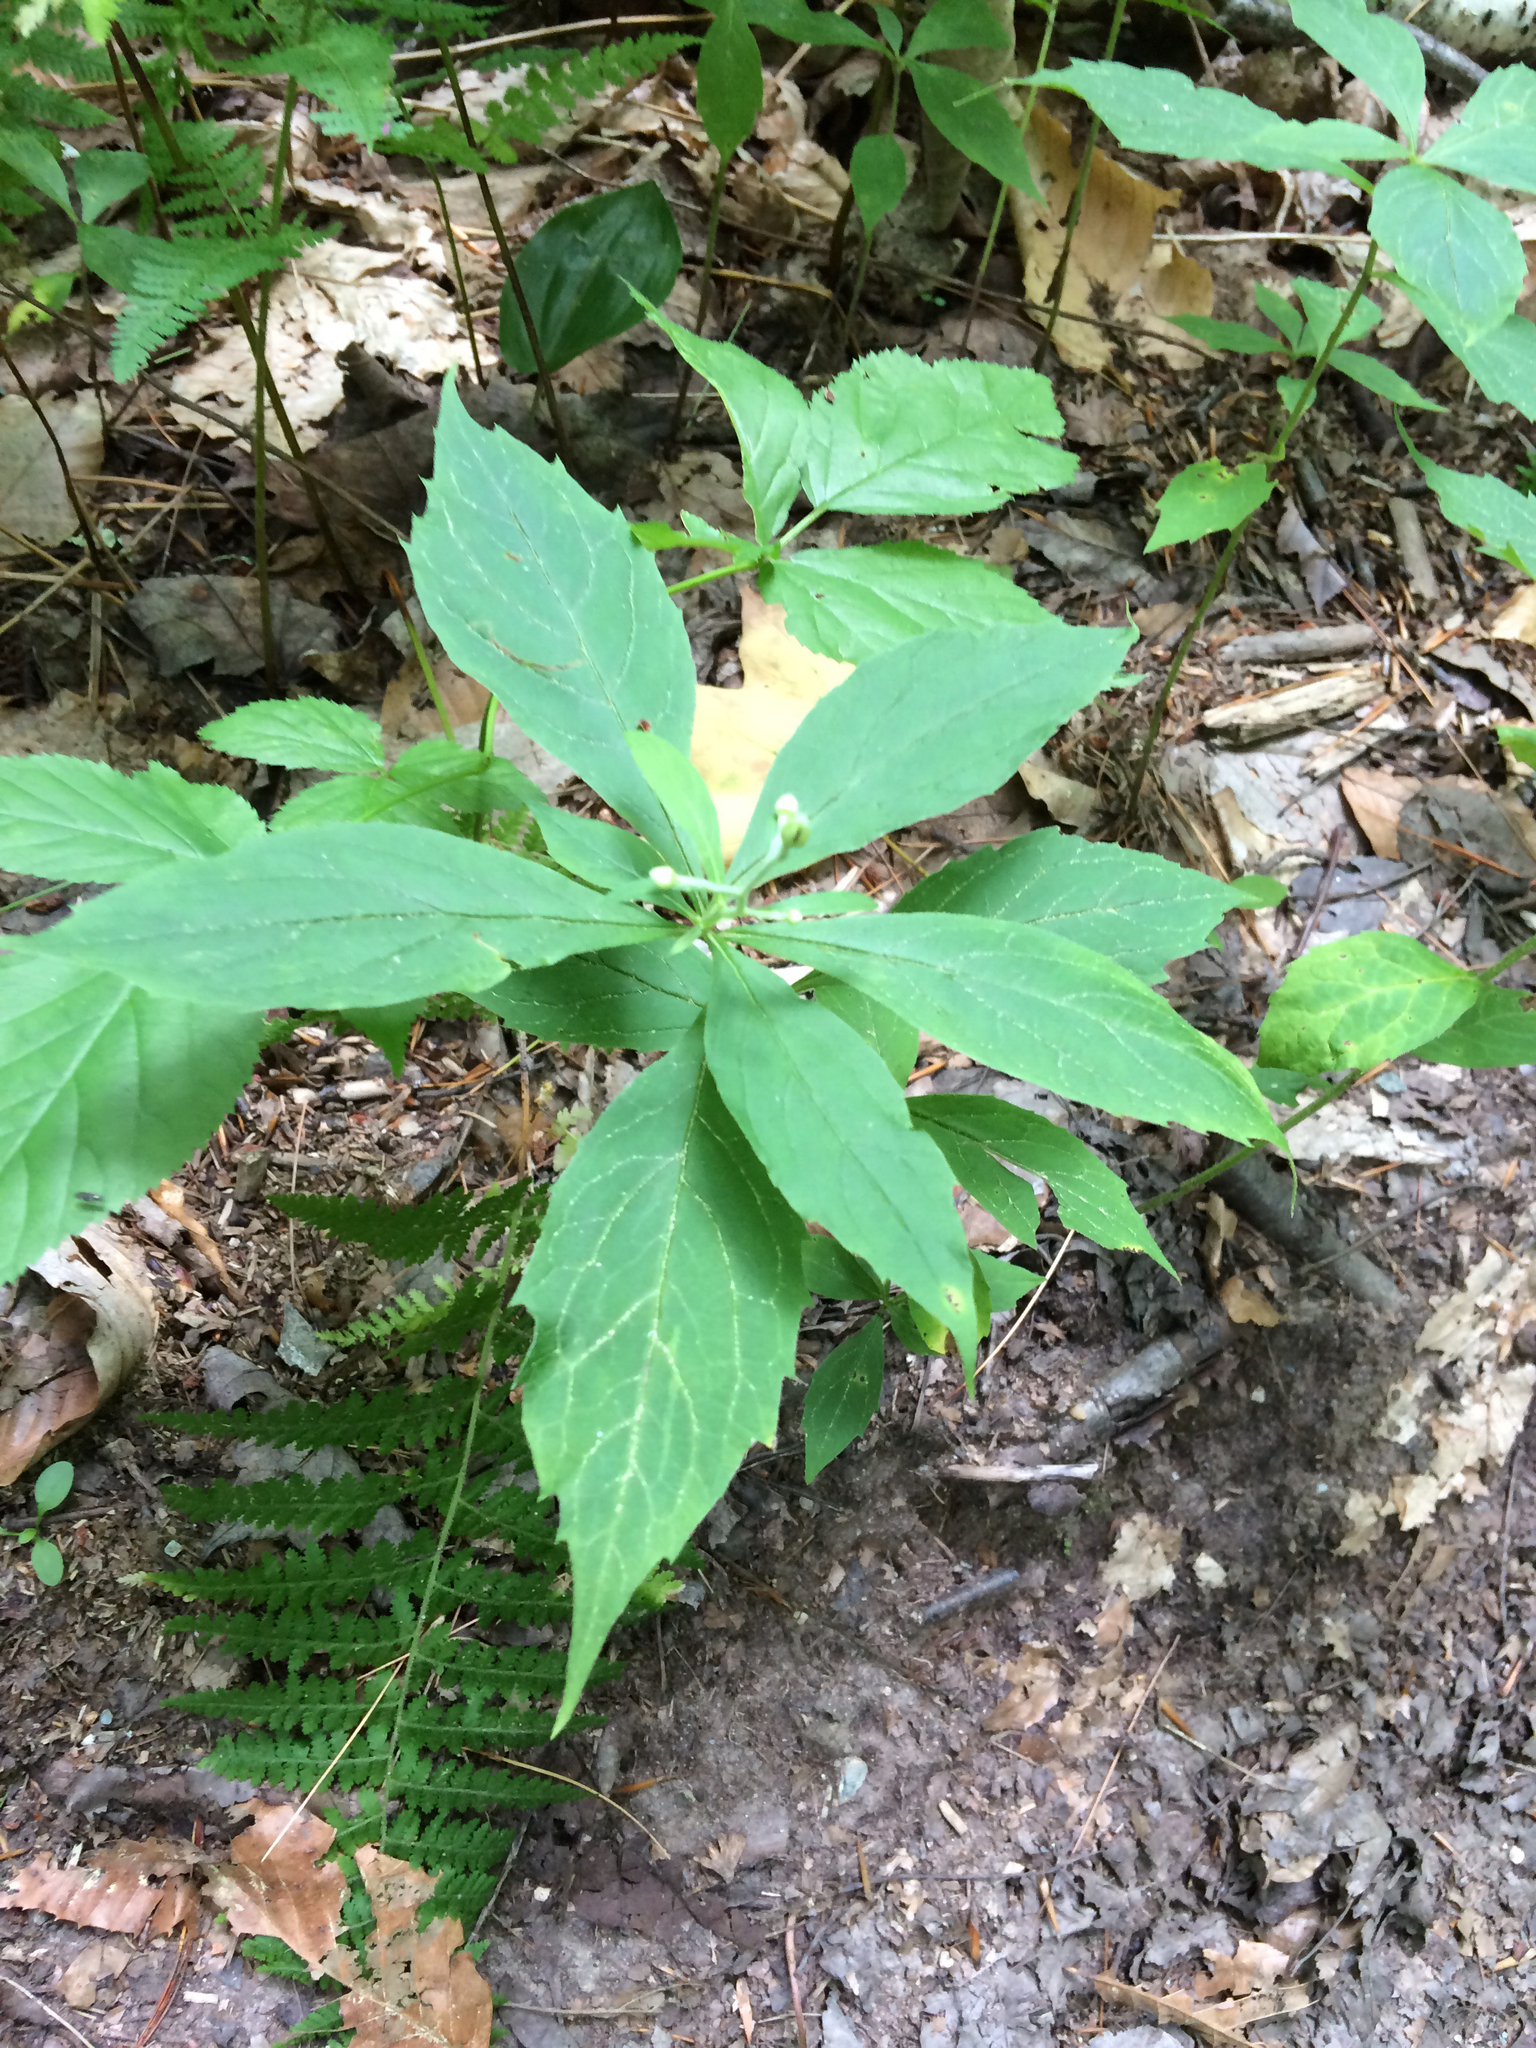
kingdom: Plantae
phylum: Tracheophyta
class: Magnoliopsida
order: Asterales
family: Asteraceae
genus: Oclemena
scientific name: Oclemena acuminata
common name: Mountain aster
